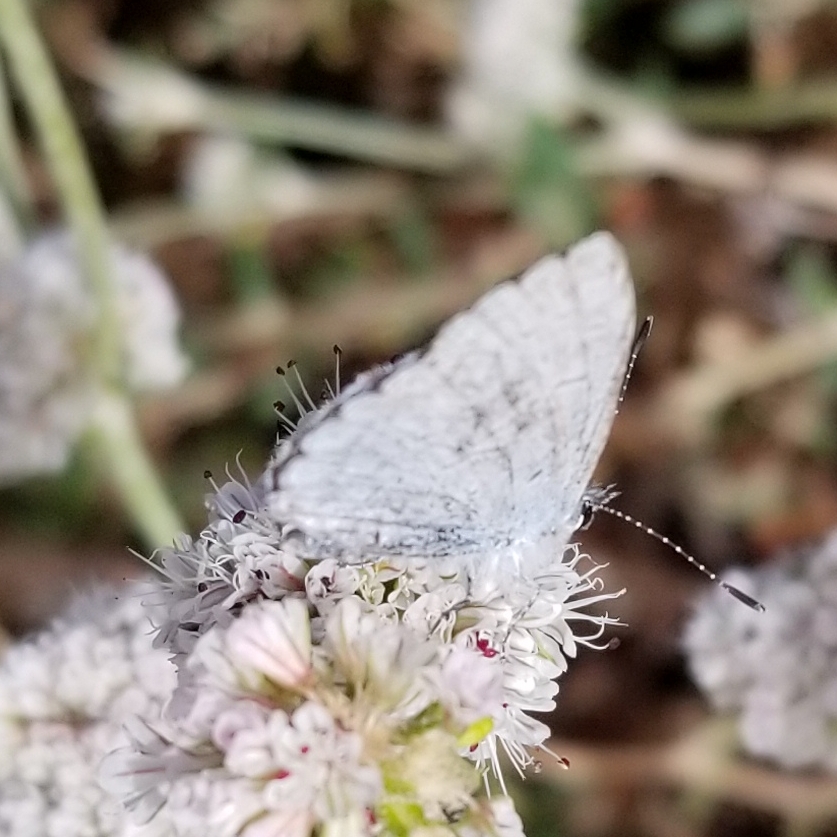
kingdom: Animalia
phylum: Arthropoda
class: Insecta
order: Lepidoptera
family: Lycaenidae
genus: Celastrina
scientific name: Celastrina ladon
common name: Spring azure
